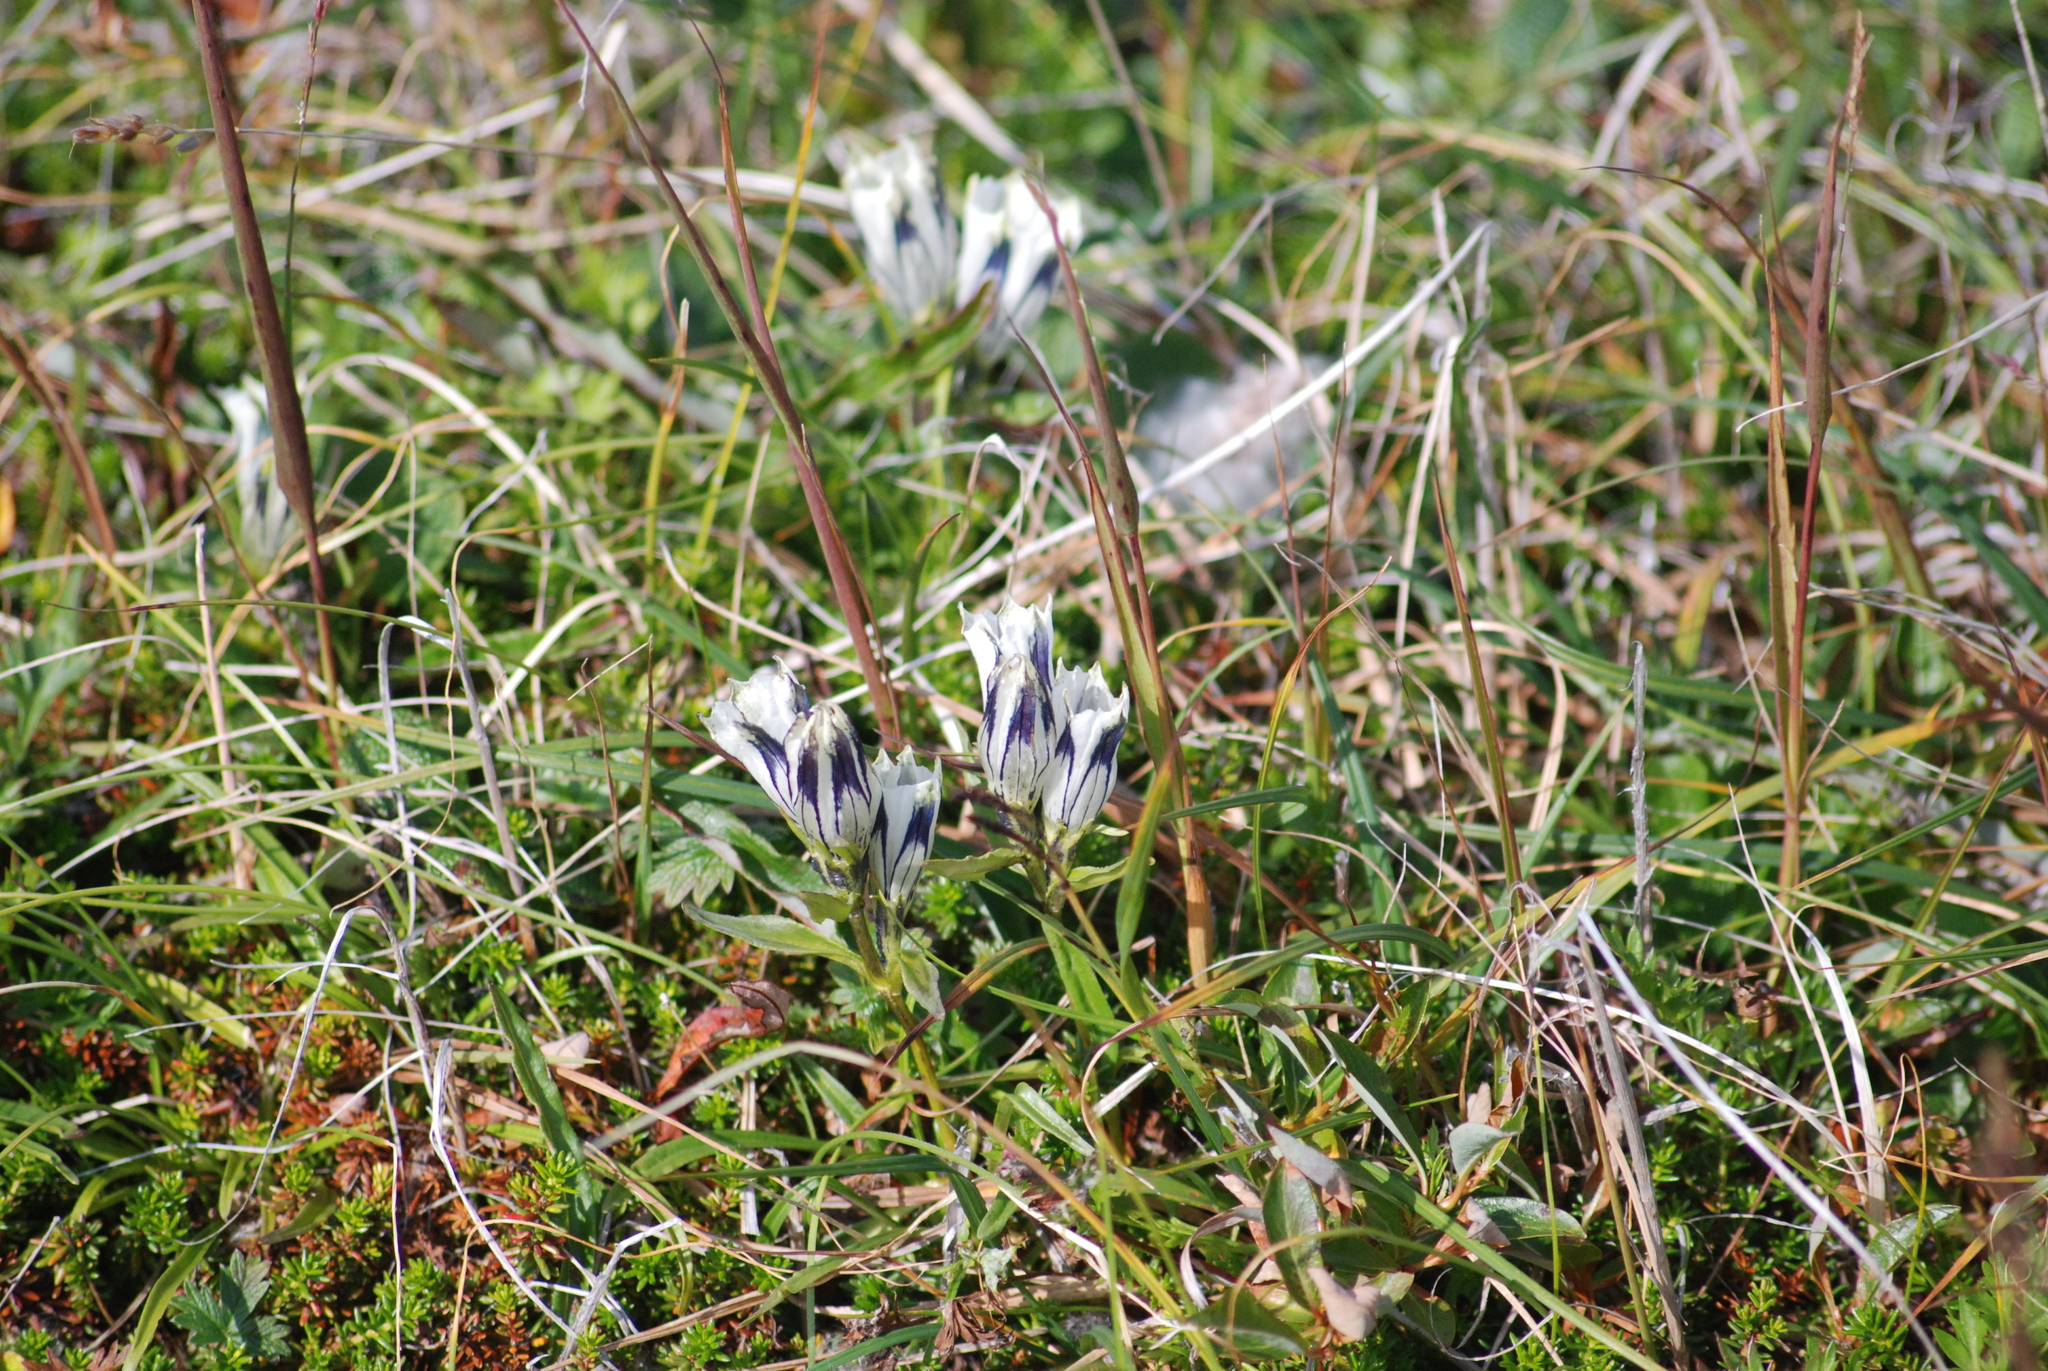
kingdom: Plantae
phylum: Tracheophyta
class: Magnoliopsida
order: Gentianales
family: Gentianaceae
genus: Gentiana
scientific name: Gentiana algida
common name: Arctic gentian
